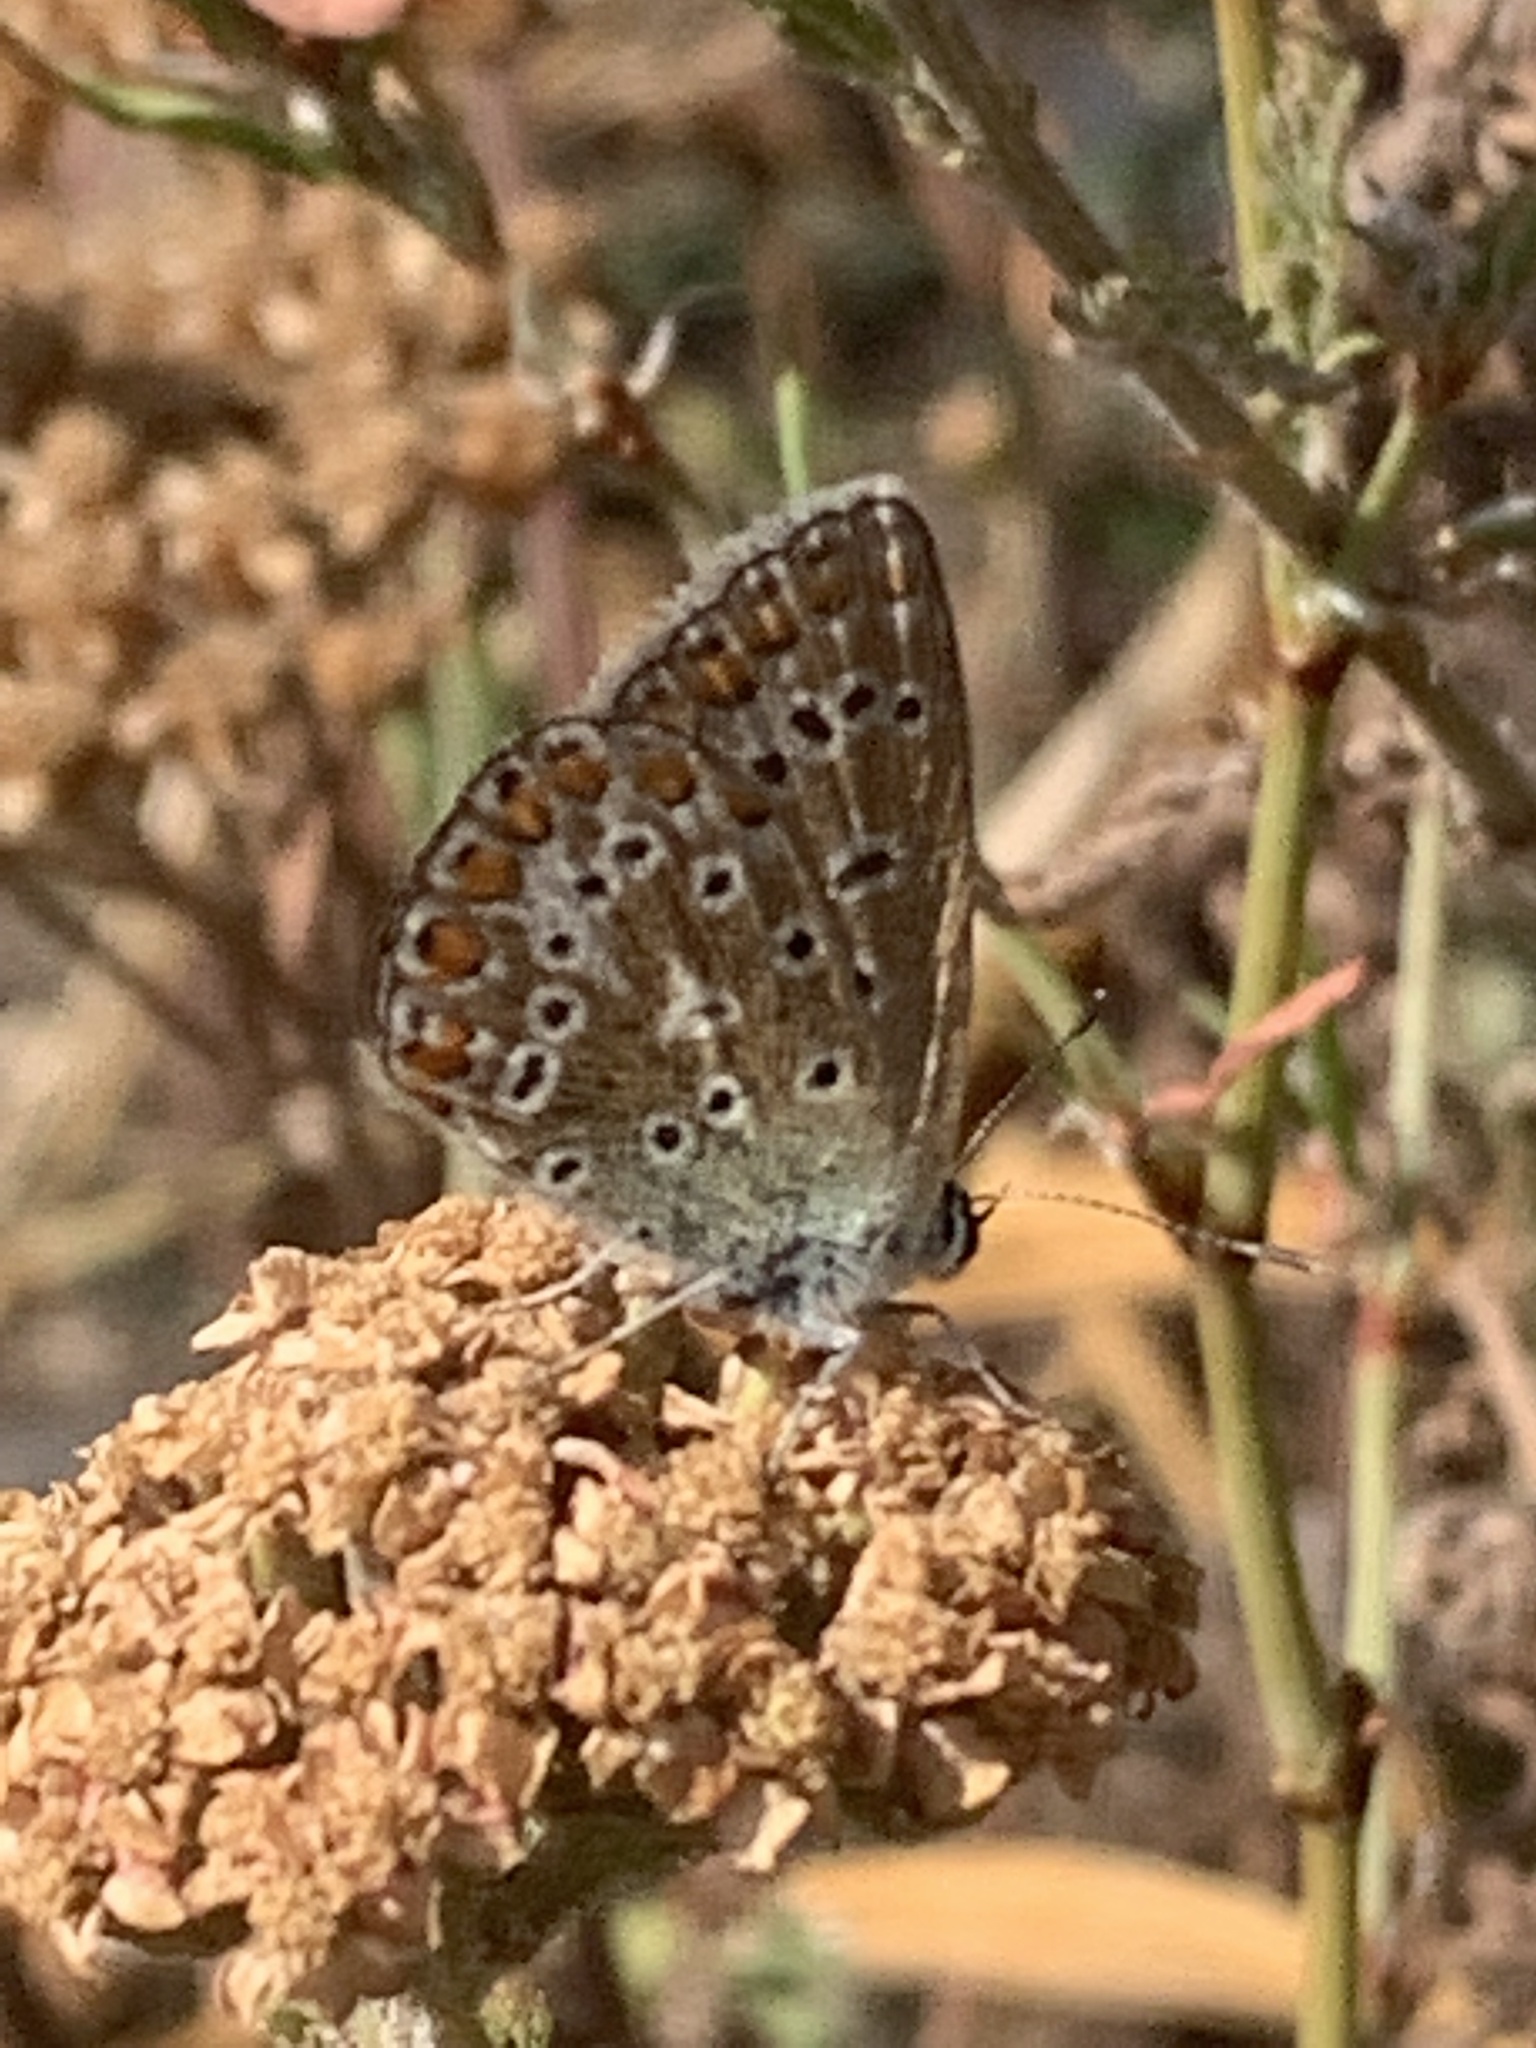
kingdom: Animalia
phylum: Arthropoda
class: Insecta
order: Lepidoptera
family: Lycaenidae
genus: Polyommatus
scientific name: Polyommatus icarus
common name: Common blue
